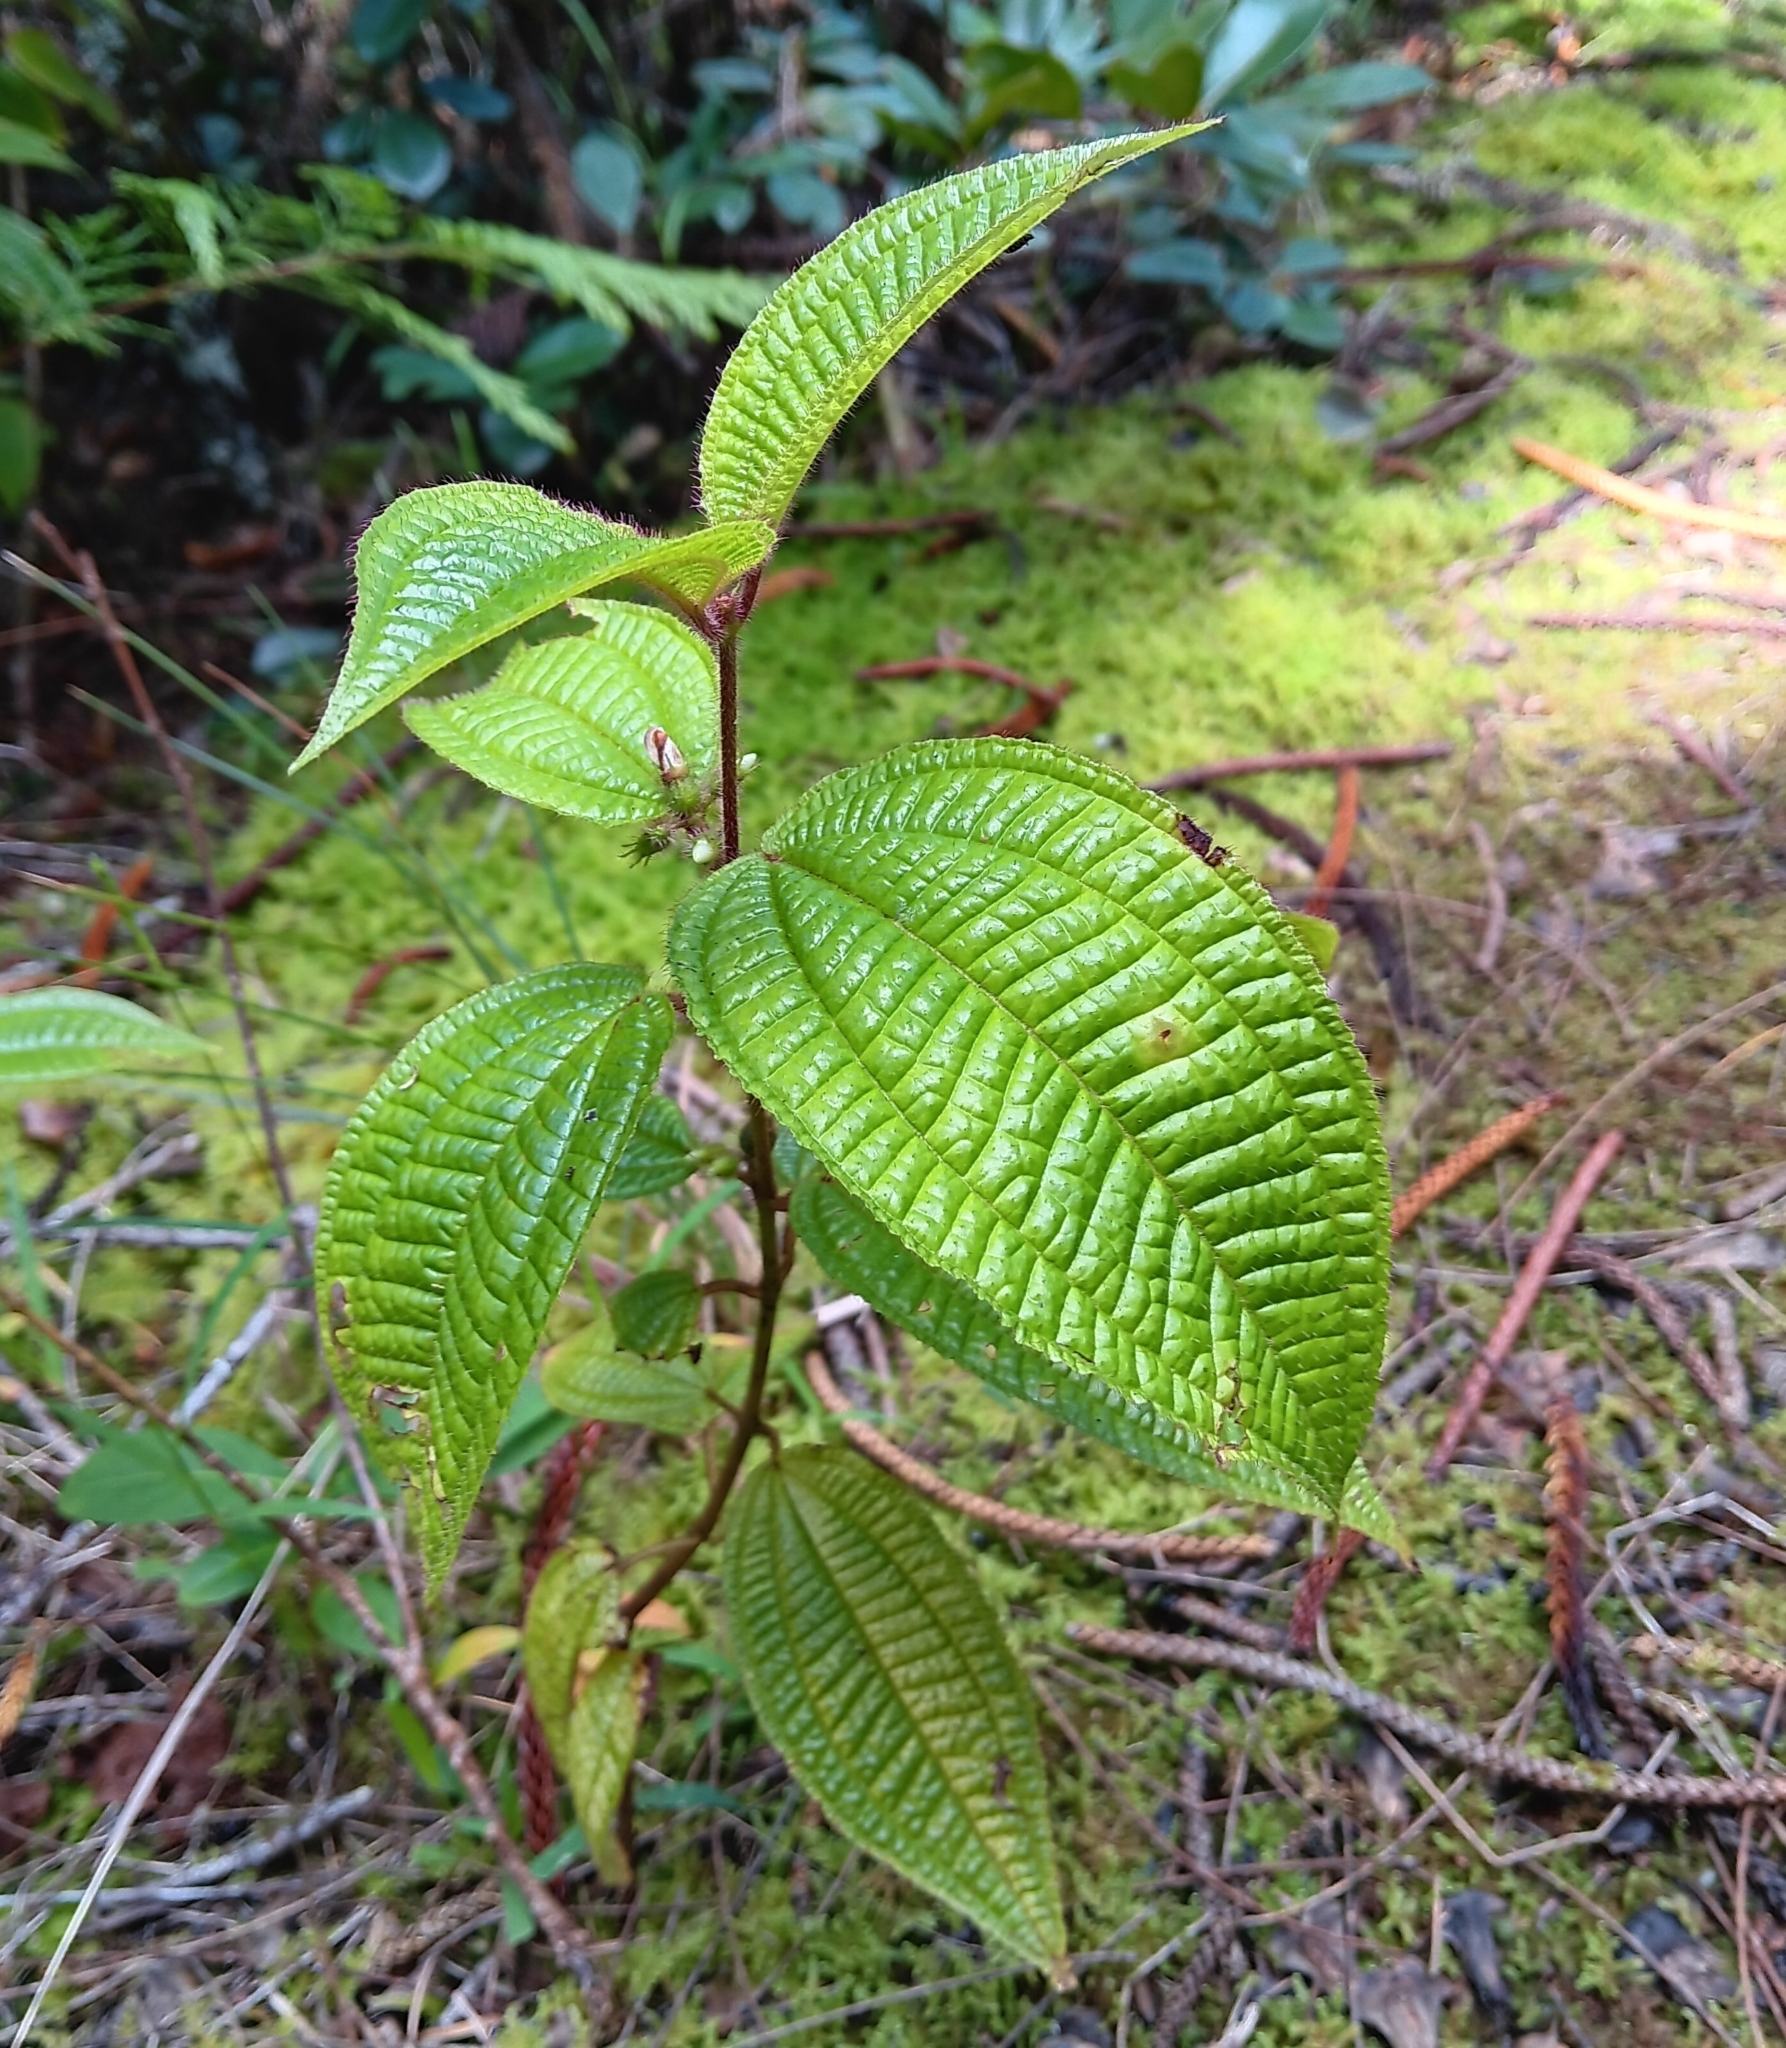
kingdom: Plantae
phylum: Tracheophyta
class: Magnoliopsida
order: Myrtales
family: Melastomataceae
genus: Miconia
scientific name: Miconia crenata
